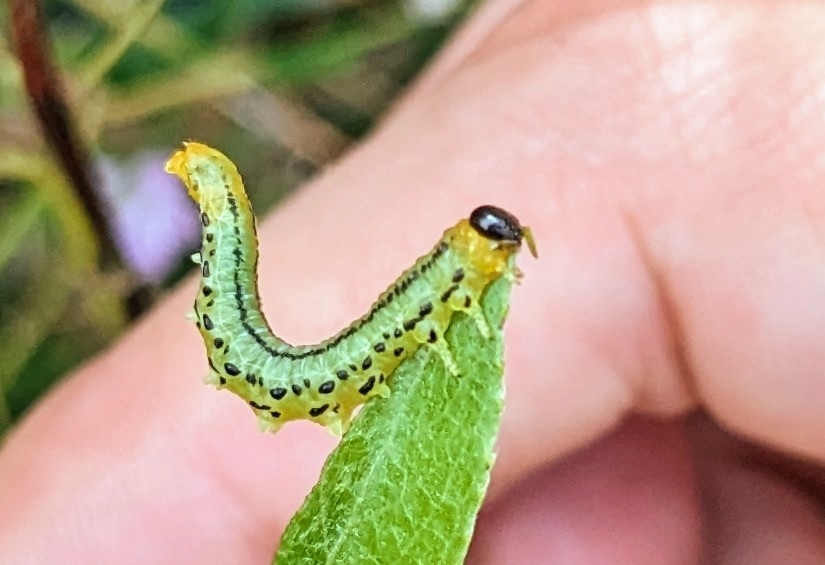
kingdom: Animalia
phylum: Arthropoda
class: Insecta
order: Hymenoptera
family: Tenthredinidae
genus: Nematus
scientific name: Nematus pavidus
